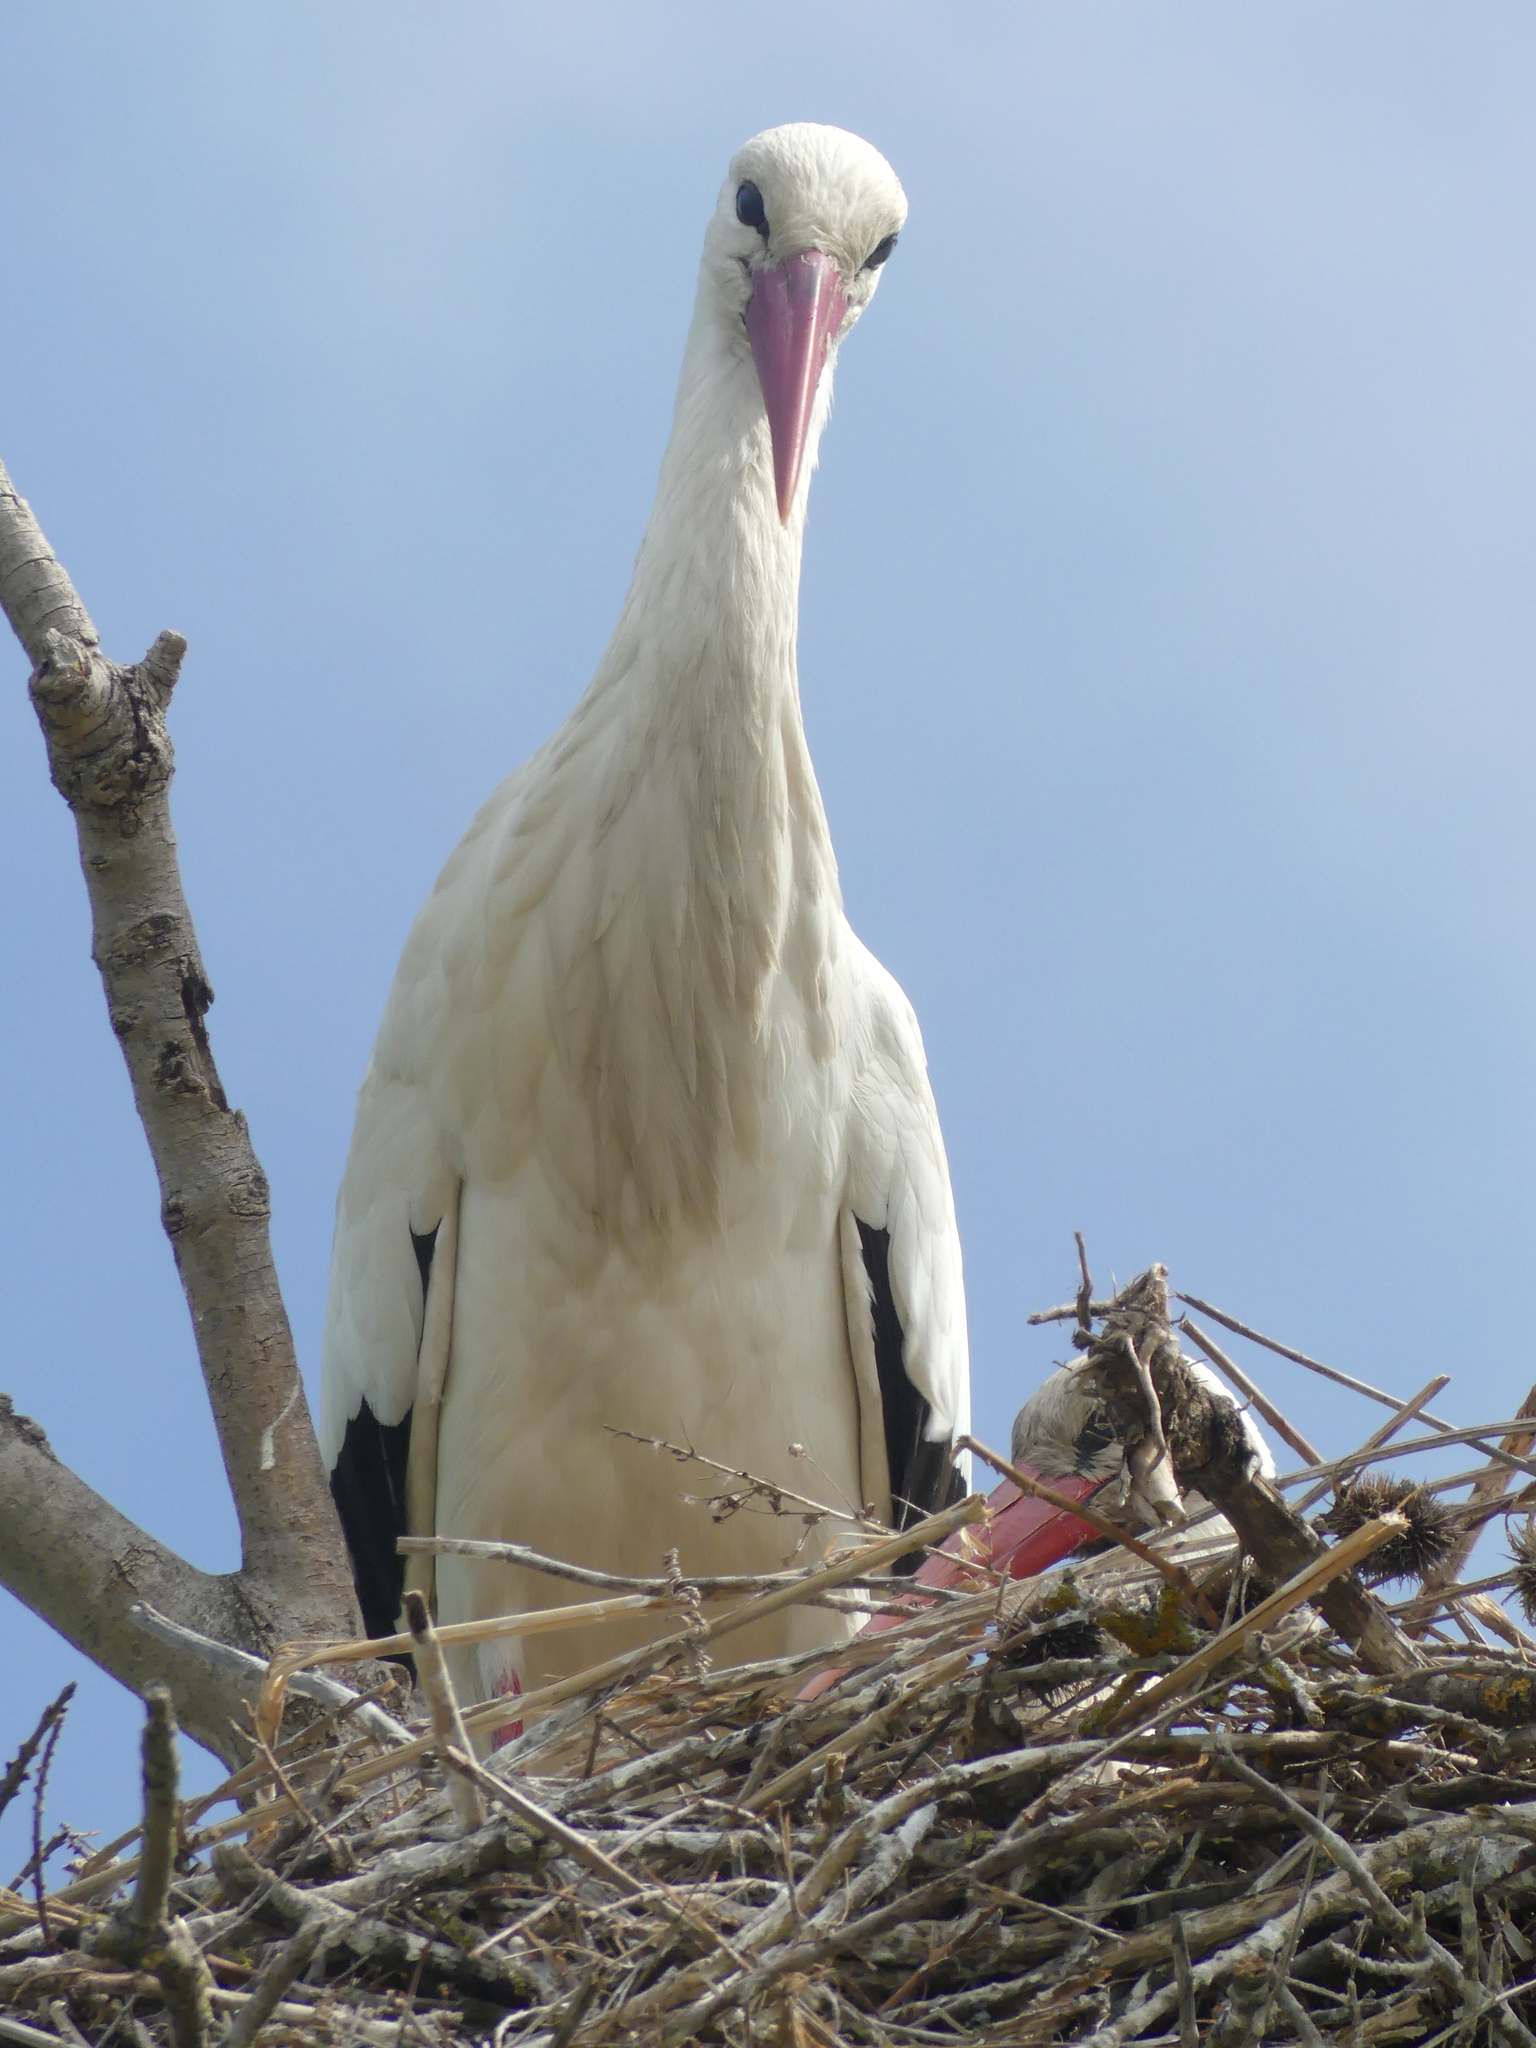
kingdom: Animalia
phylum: Chordata
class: Aves
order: Ciconiiformes
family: Ciconiidae
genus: Ciconia
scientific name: Ciconia ciconia
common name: White stork
